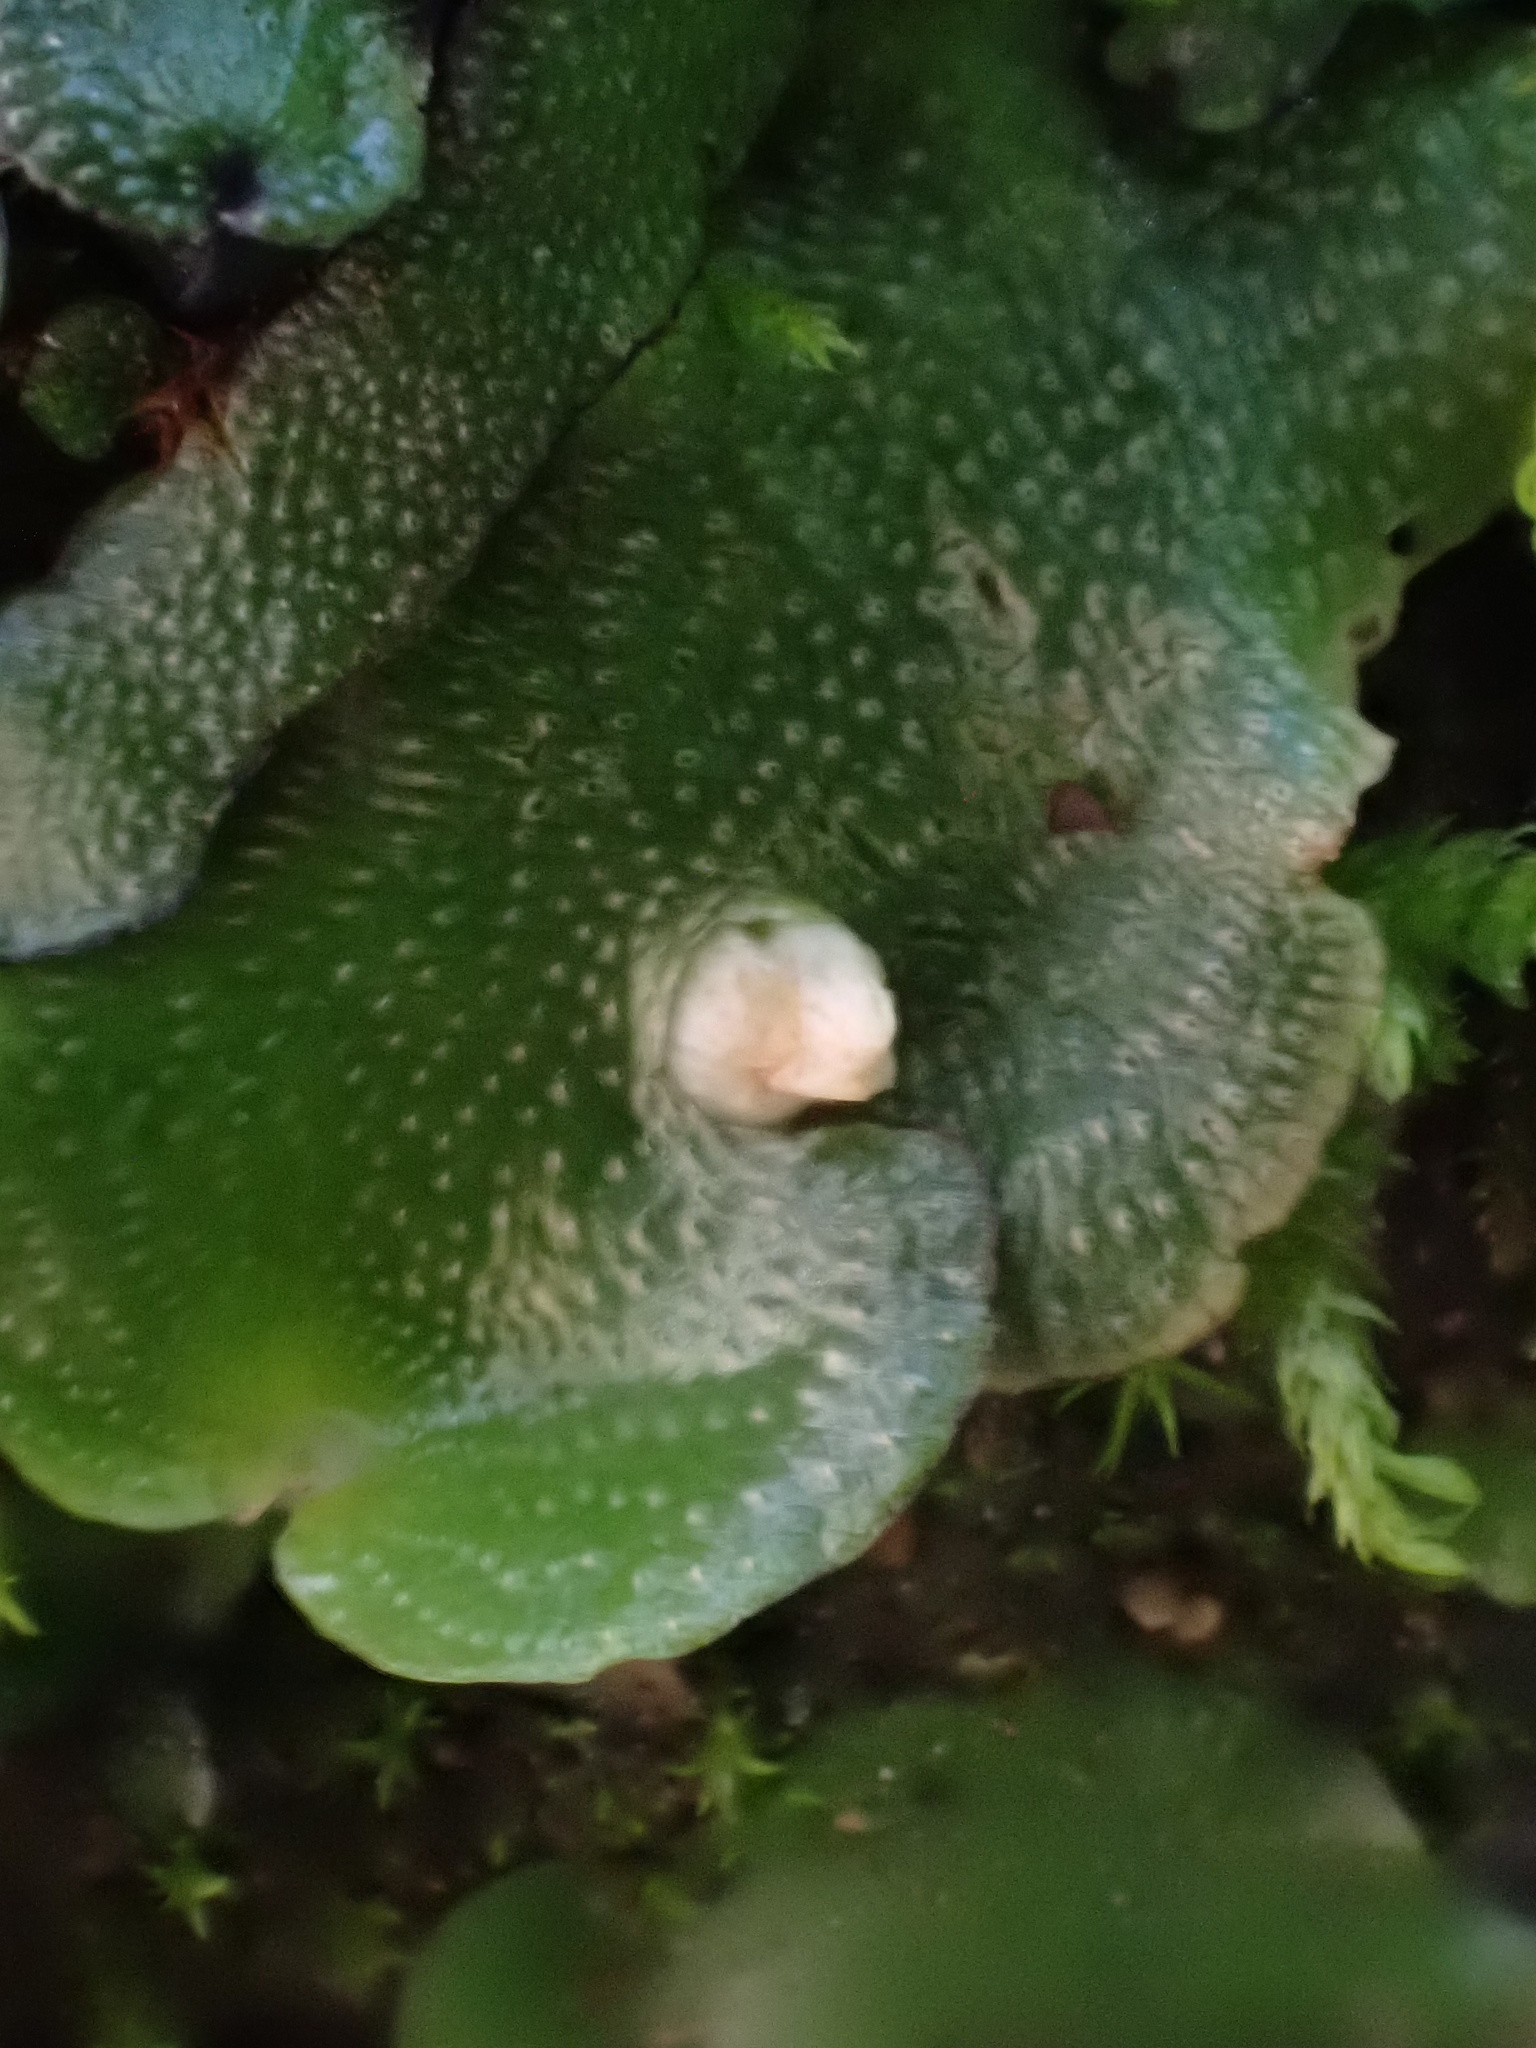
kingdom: Plantae
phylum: Marchantiophyta
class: Marchantiopsida
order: Lunulariales
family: Lunulariaceae
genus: Lunularia
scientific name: Lunularia cruciata
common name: Crescent-cup liverwort
